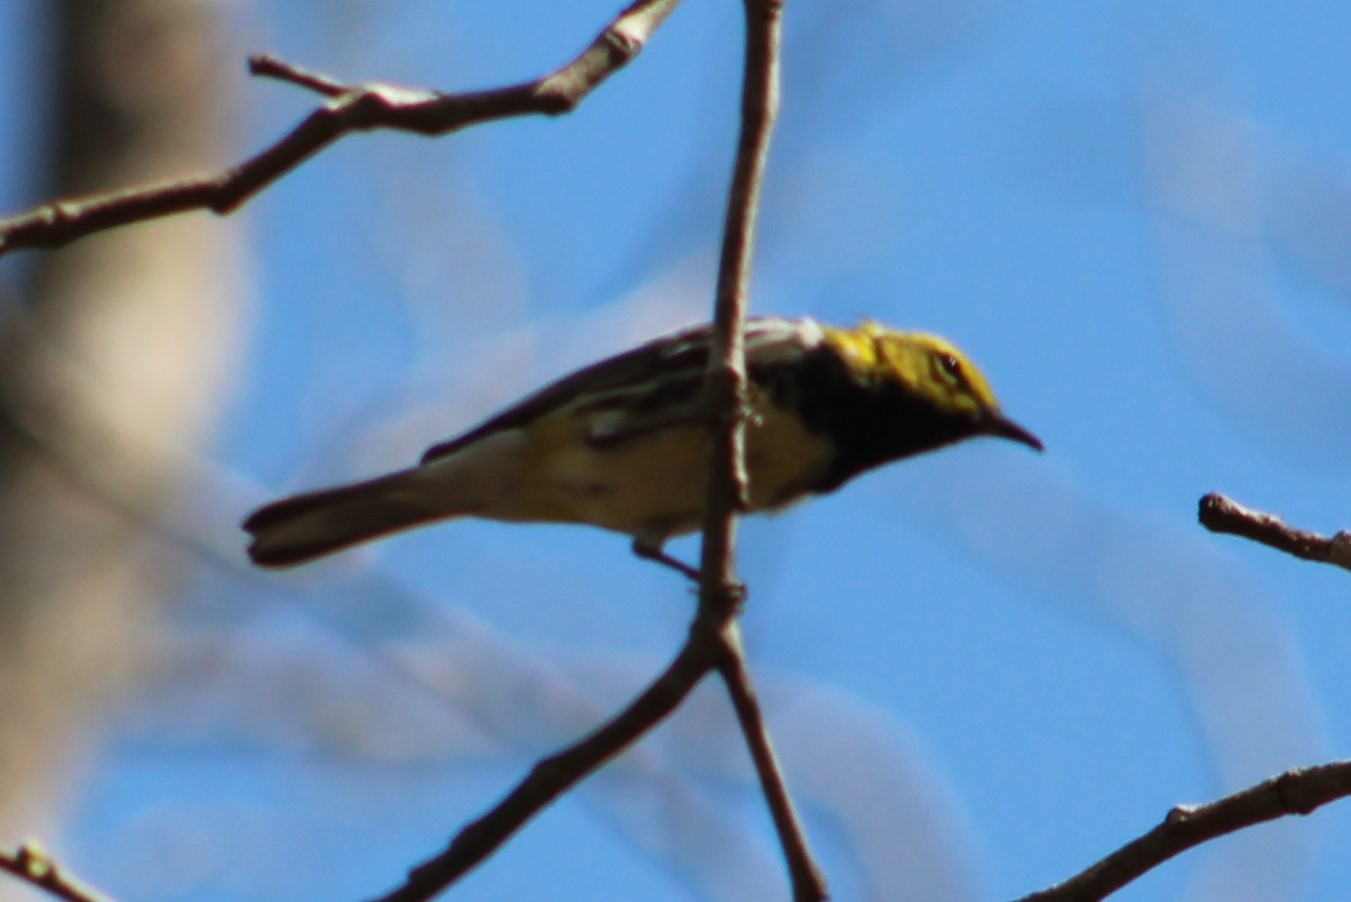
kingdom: Animalia
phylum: Chordata
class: Aves
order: Passeriformes
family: Parulidae
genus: Setophaga
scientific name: Setophaga virens
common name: Black-throated green warbler
